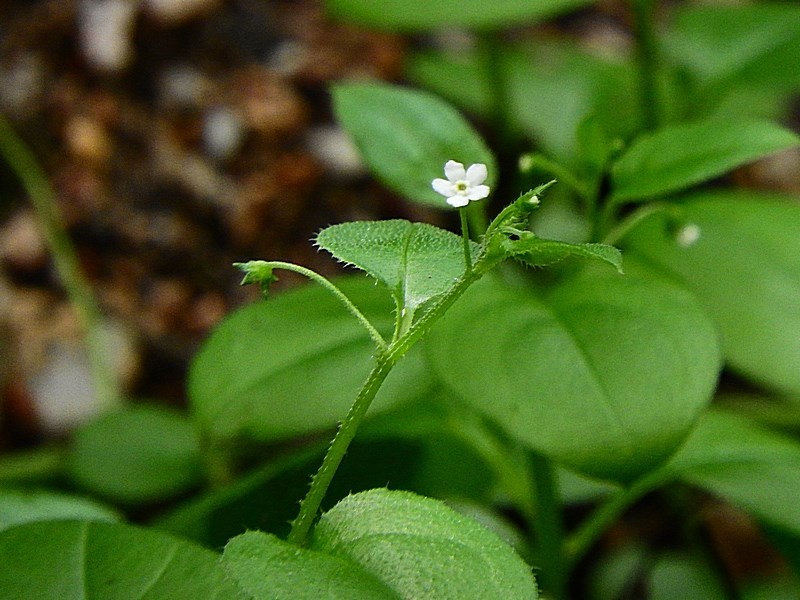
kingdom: Plantae
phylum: Tracheophyta
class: Magnoliopsida
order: Boraginales
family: Boraginaceae
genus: Hackelia
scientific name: Hackelia latifolia
